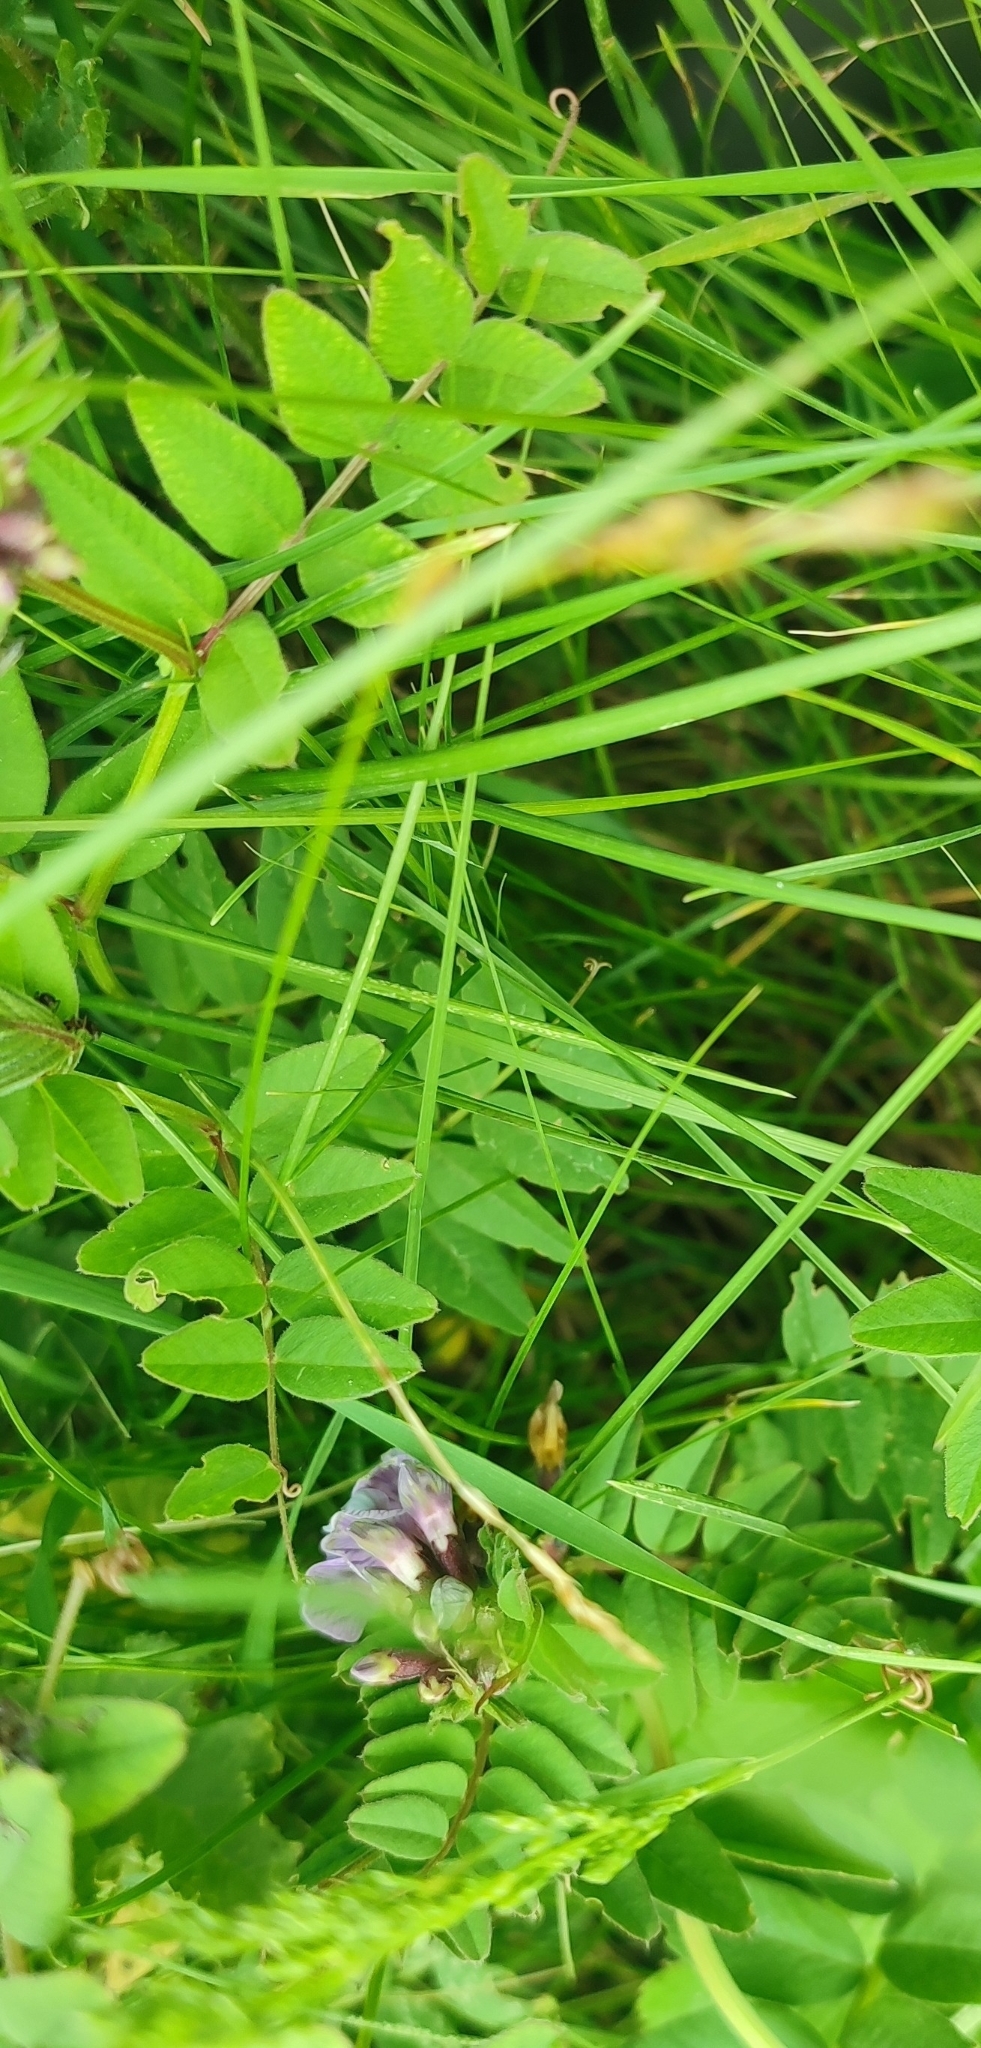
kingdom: Plantae
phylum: Tracheophyta
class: Magnoliopsida
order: Fabales
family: Fabaceae
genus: Vicia
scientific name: Vicia sepium
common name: Bush vetch
